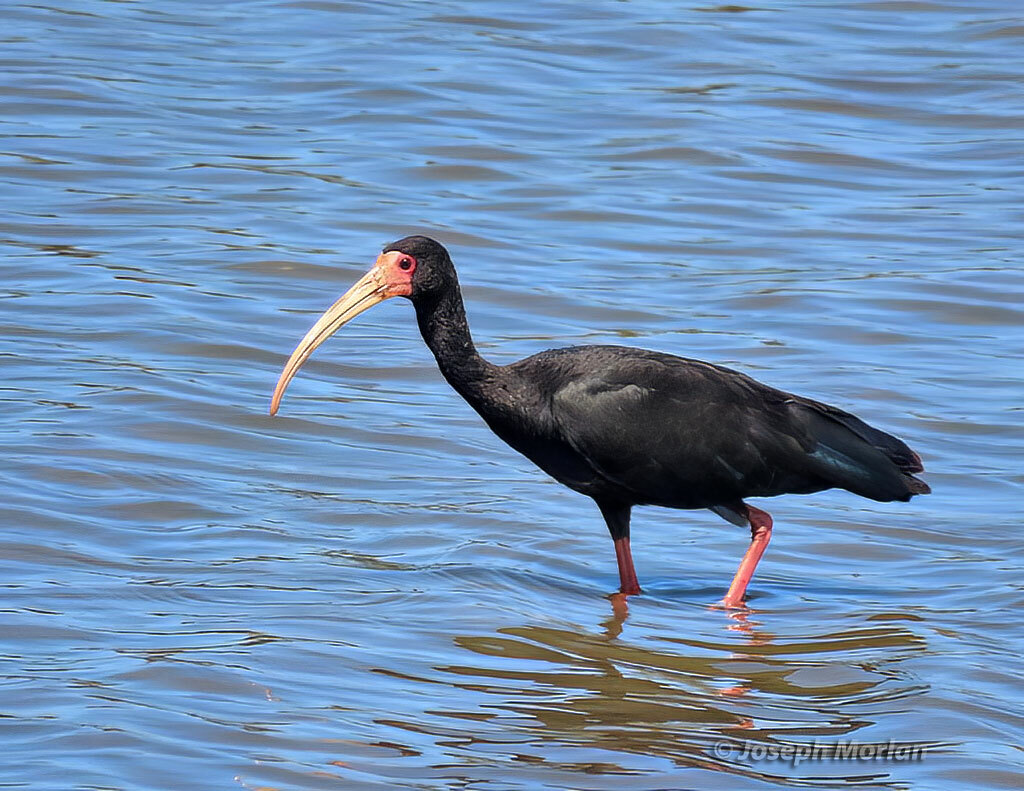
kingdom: Animalia
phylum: Chordata
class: Aves
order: Pelecaniformes
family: Threskiornithidae
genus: Phimosus
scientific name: Phimosus infuscatus
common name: Bare-faced ibis
